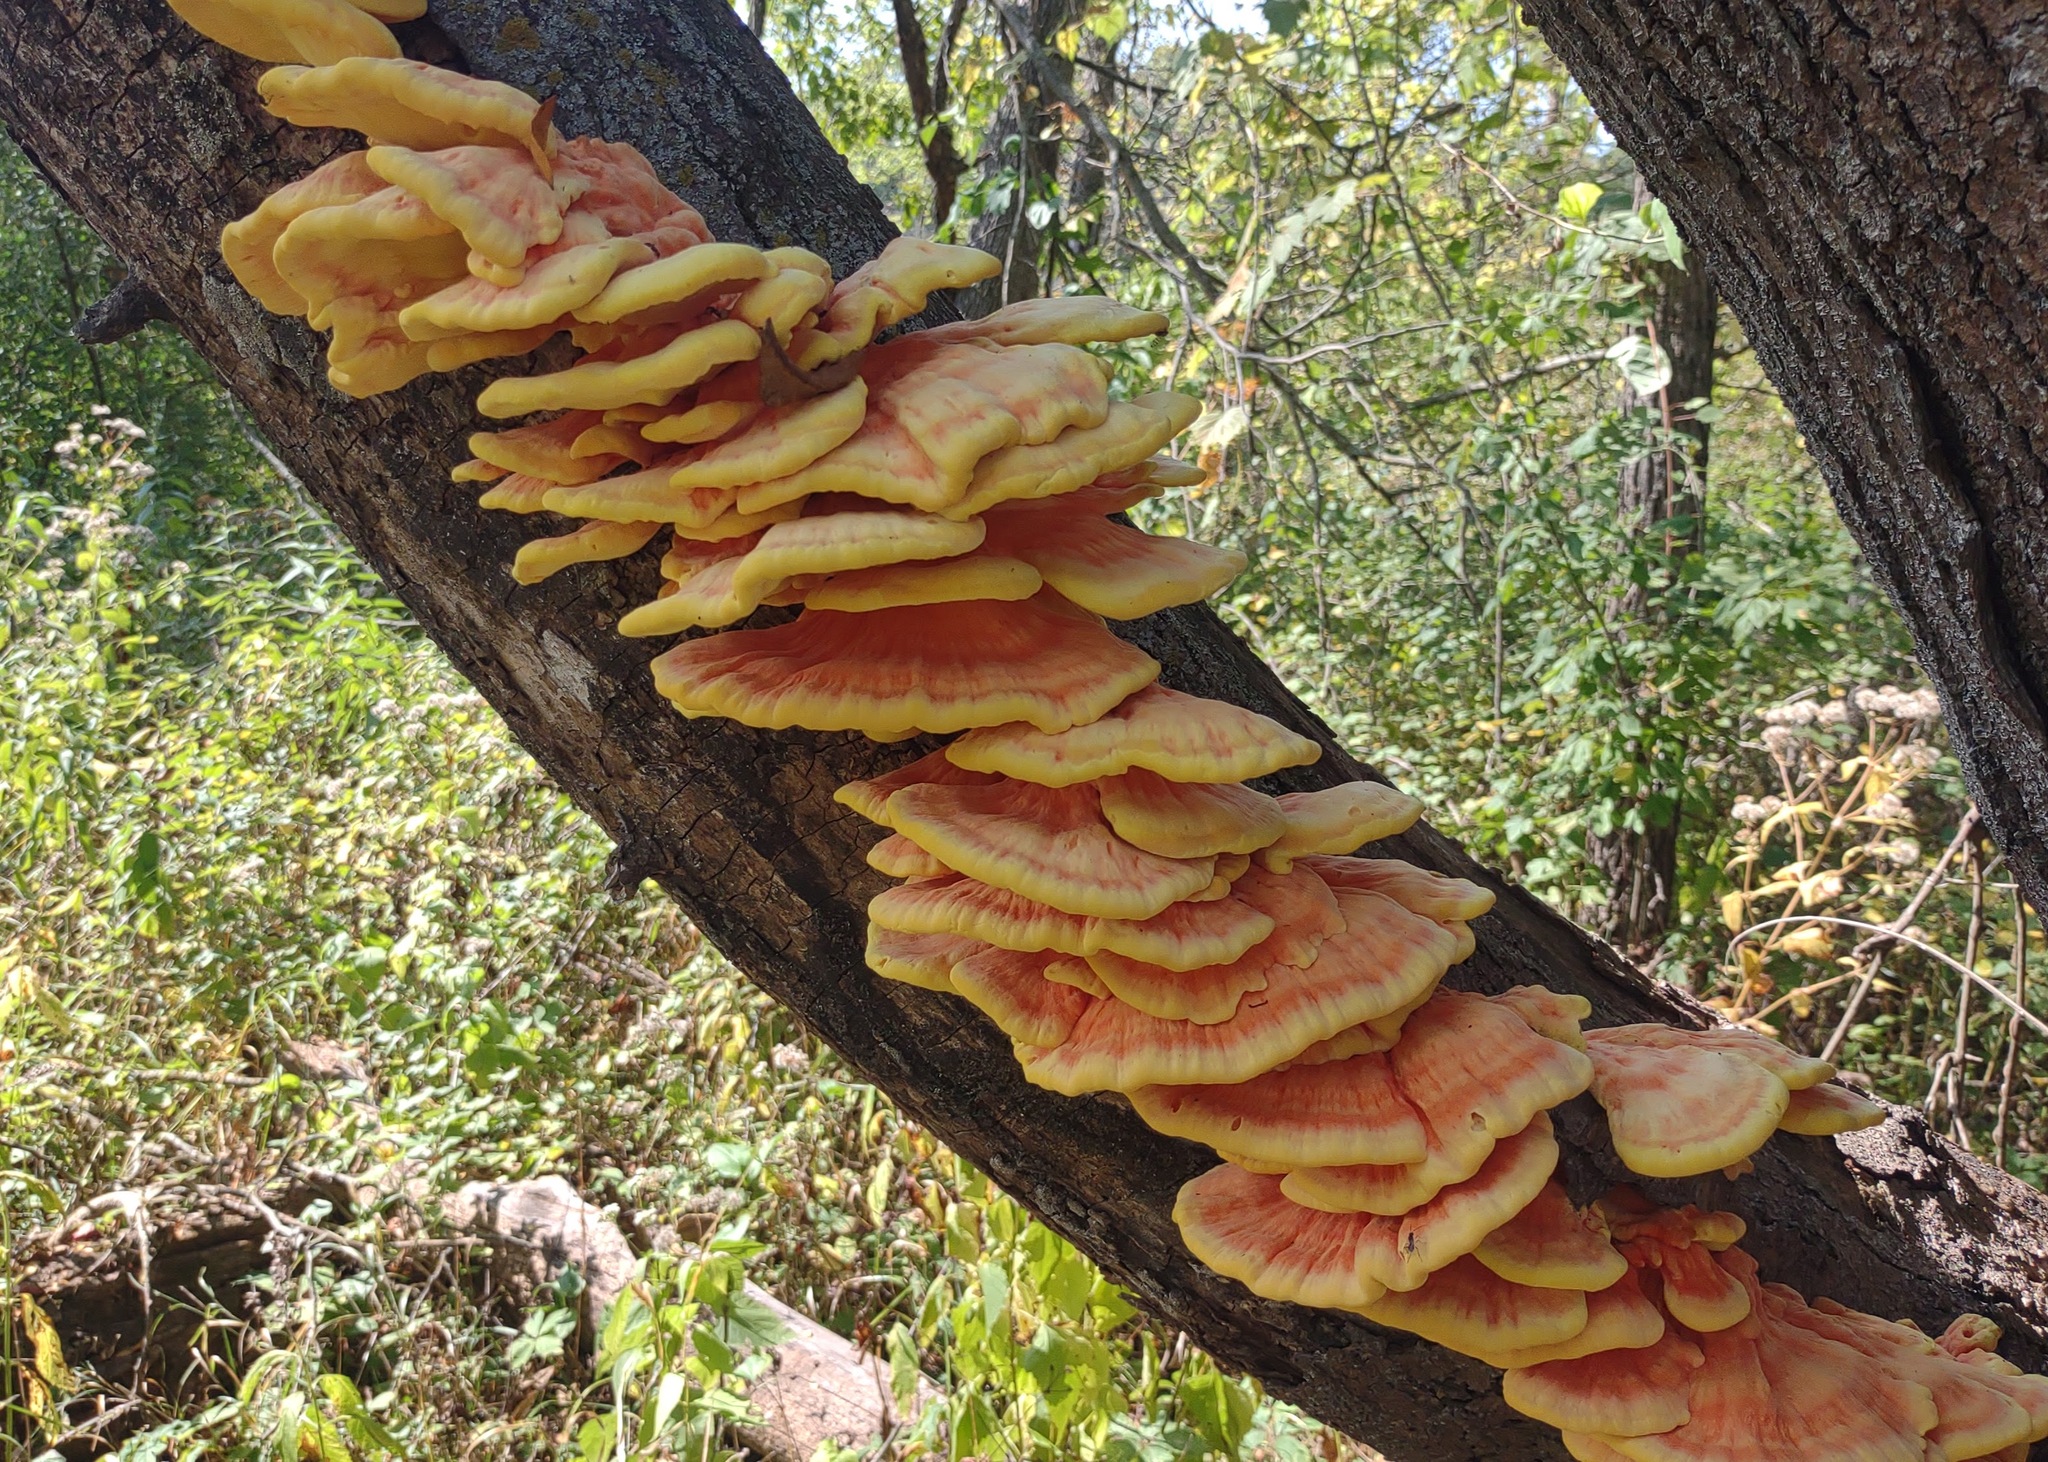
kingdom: Fungi
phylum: Basidiomycota
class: Agaricomycetes
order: Polyporales
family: Laetiporaceae
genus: Laetiporus
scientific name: Laetiporus sulphureus
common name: Chicken of the woods
